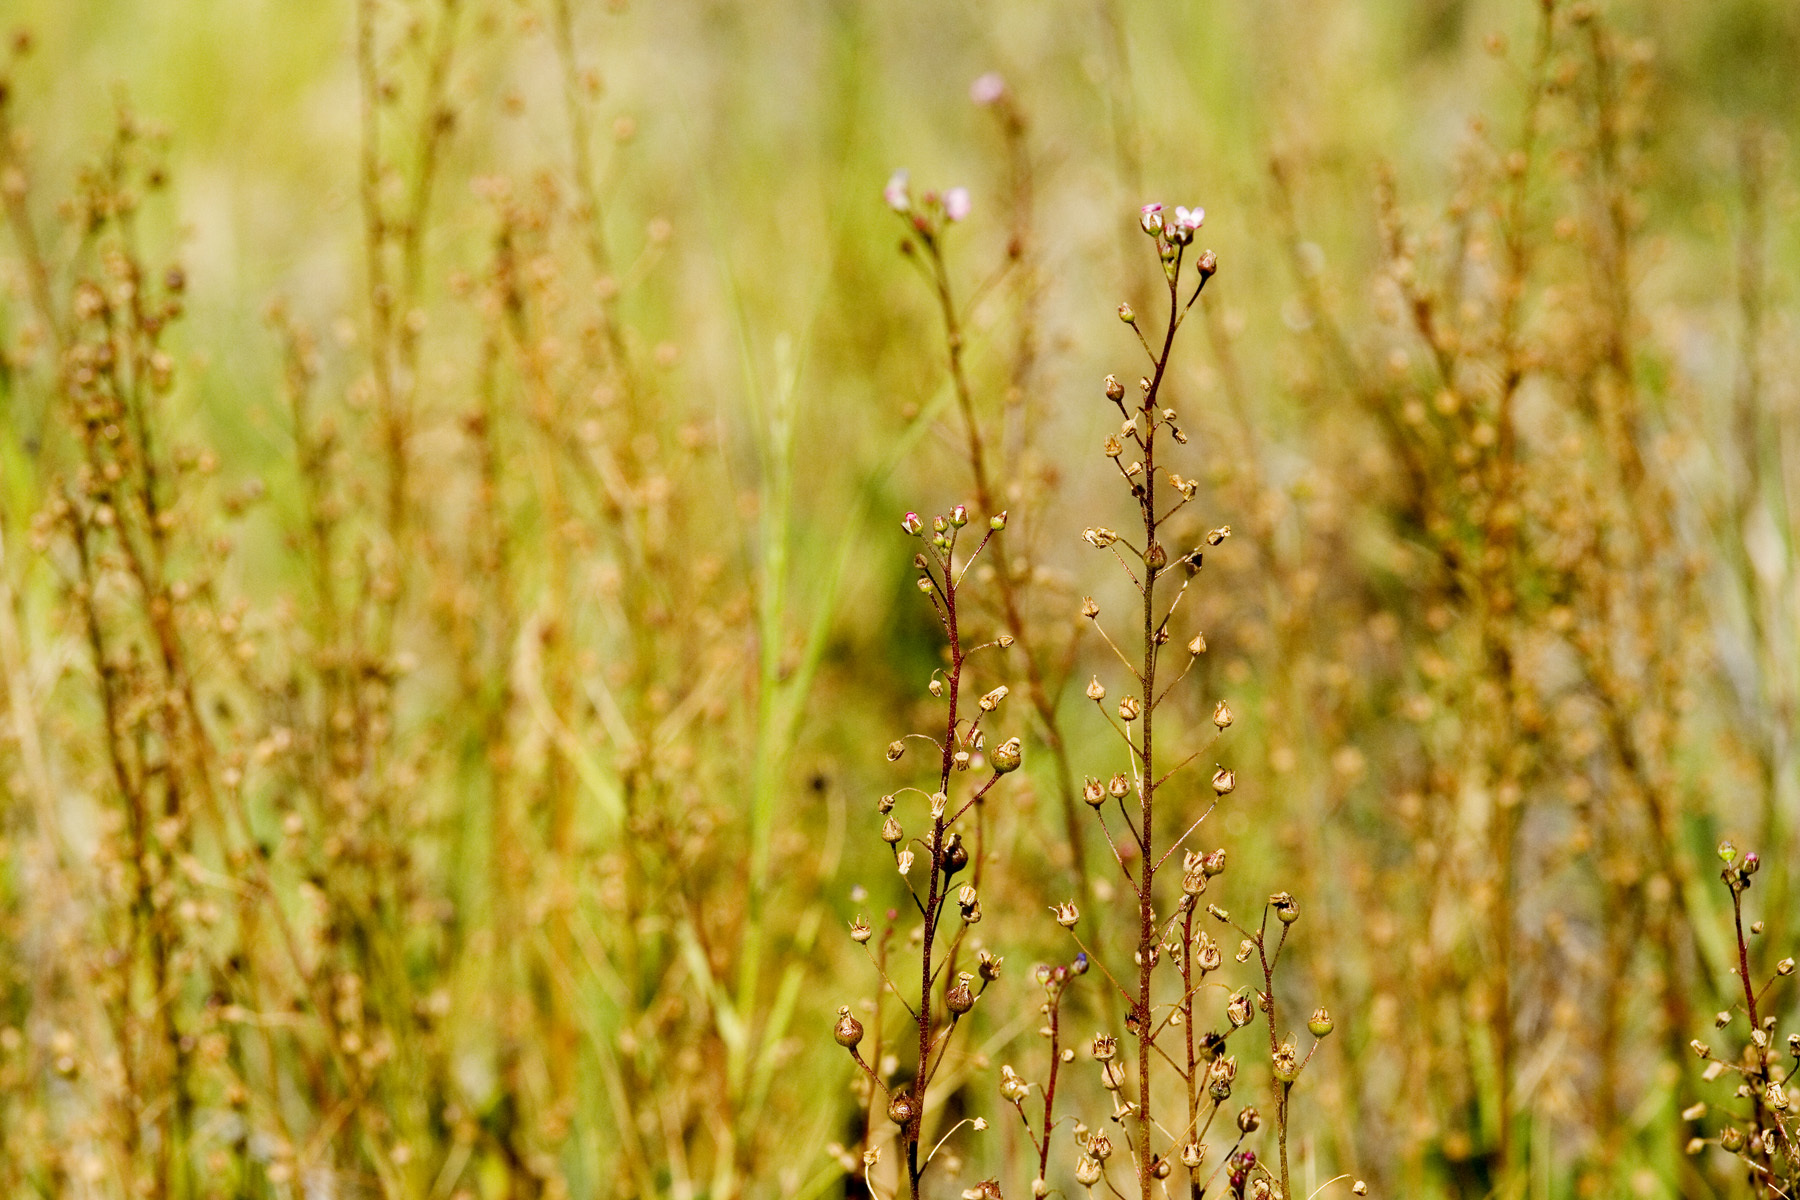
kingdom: Plantae
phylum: Tracheophyta
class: Magnoliopsida
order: Ericales
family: Primulaceae
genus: Samolus
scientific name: Samolus ebracteatus
